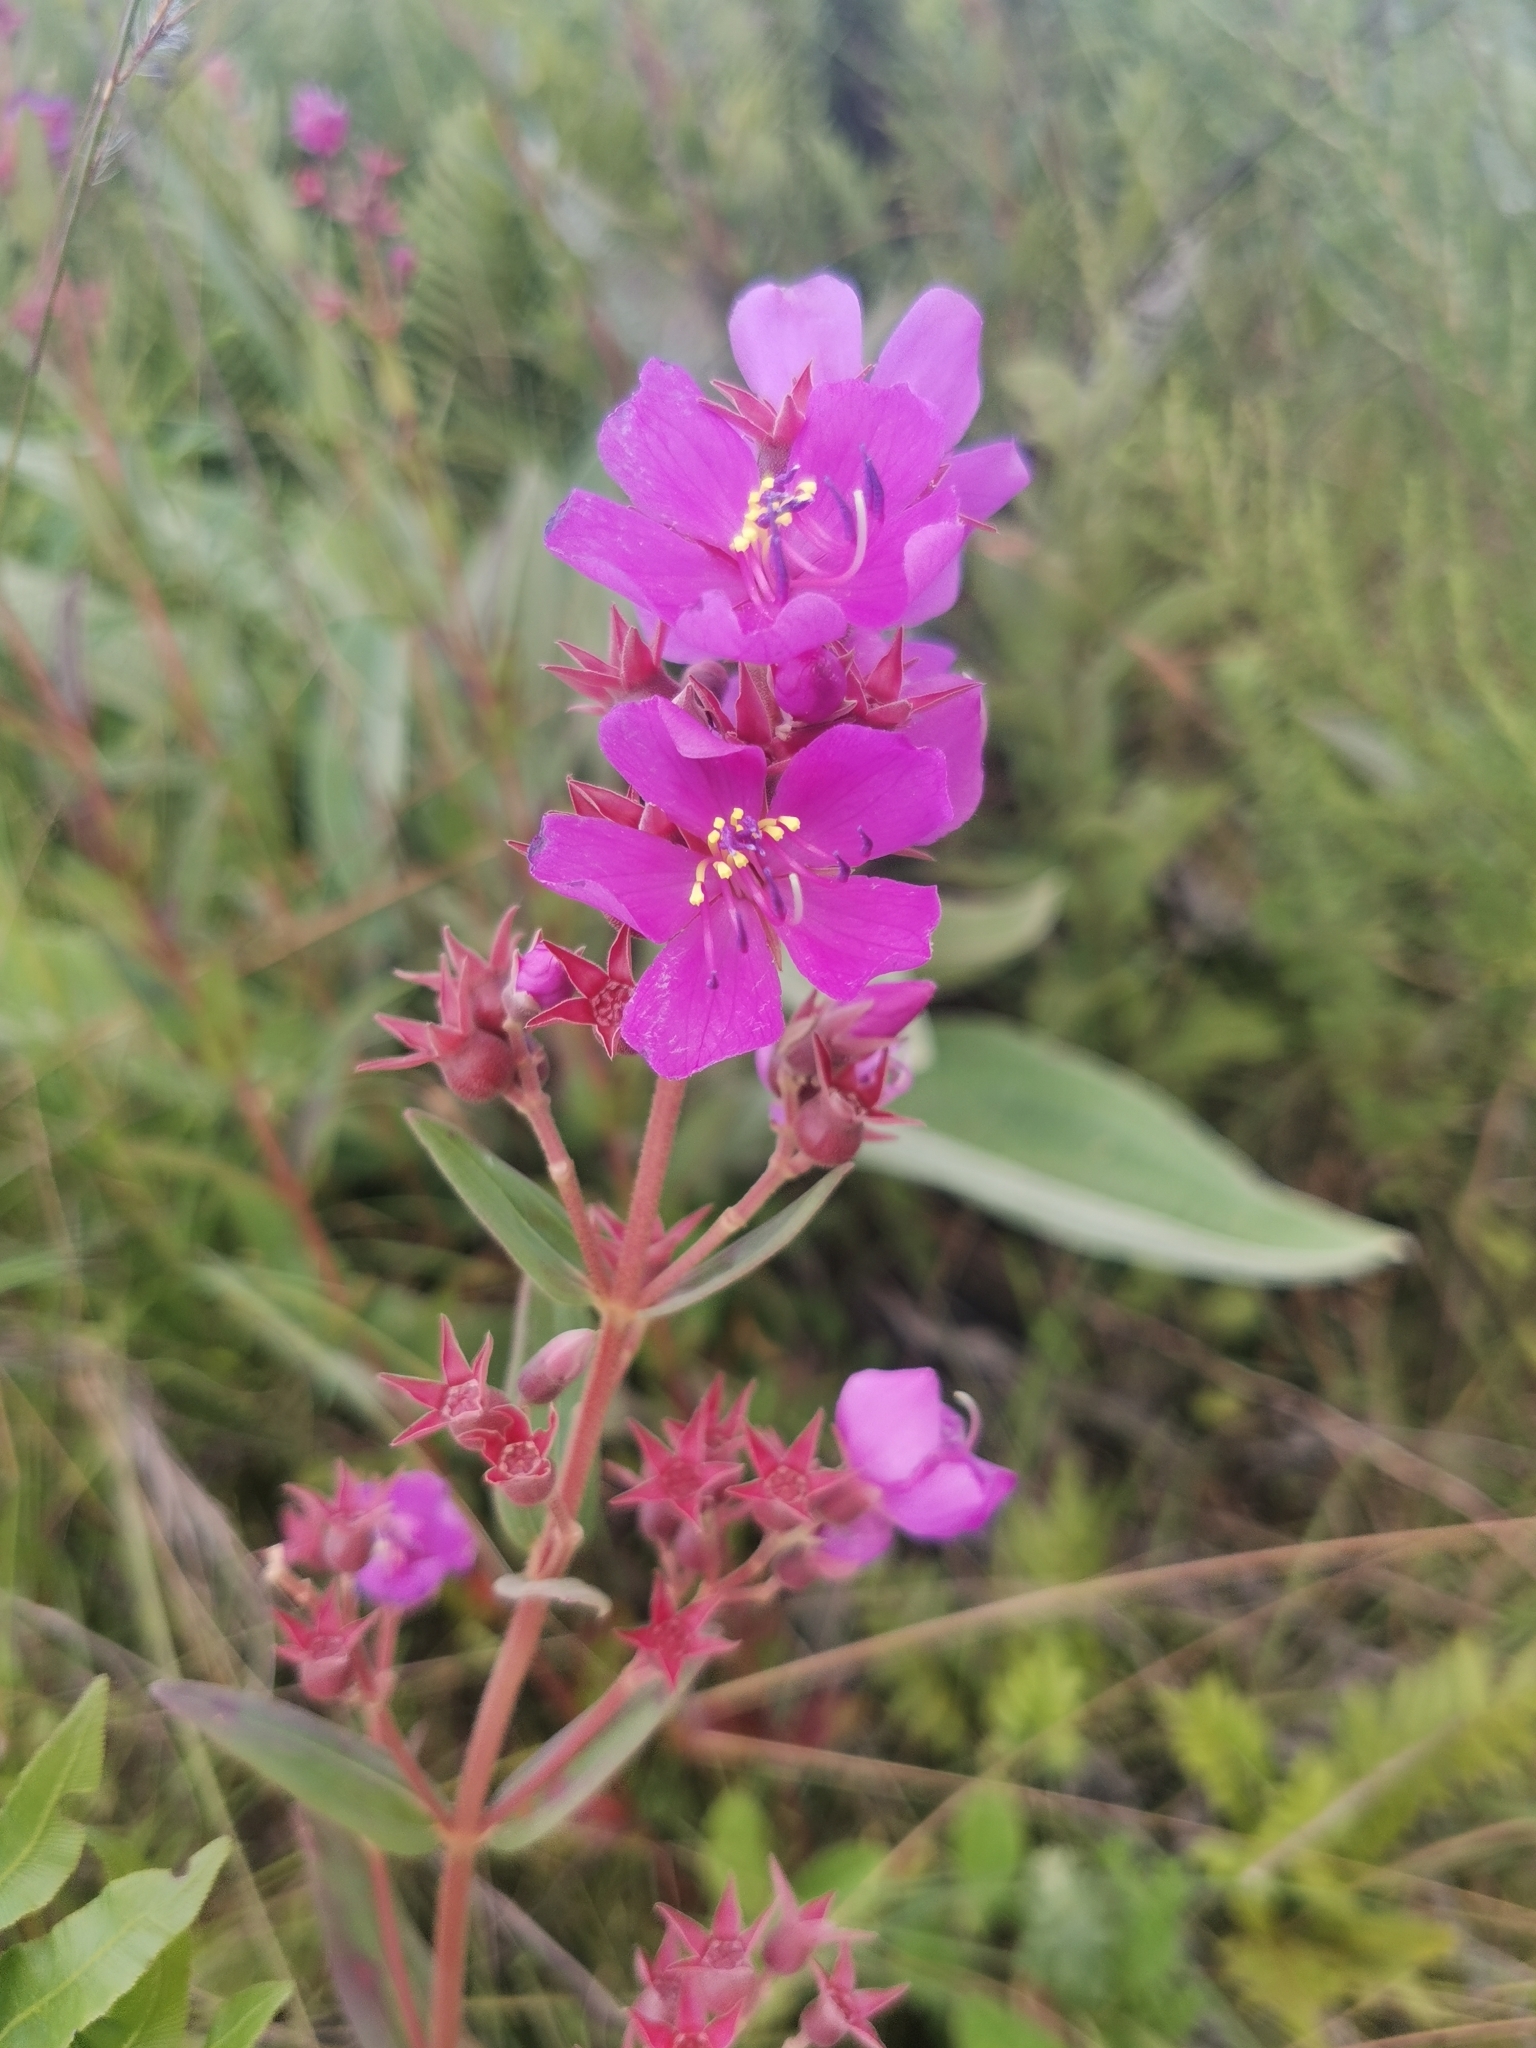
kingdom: Plantae
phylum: Tracheophyta
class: Magnoliopsida
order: Myrtales
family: Melastomataceae
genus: Argyrella
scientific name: Argyrella canescens
